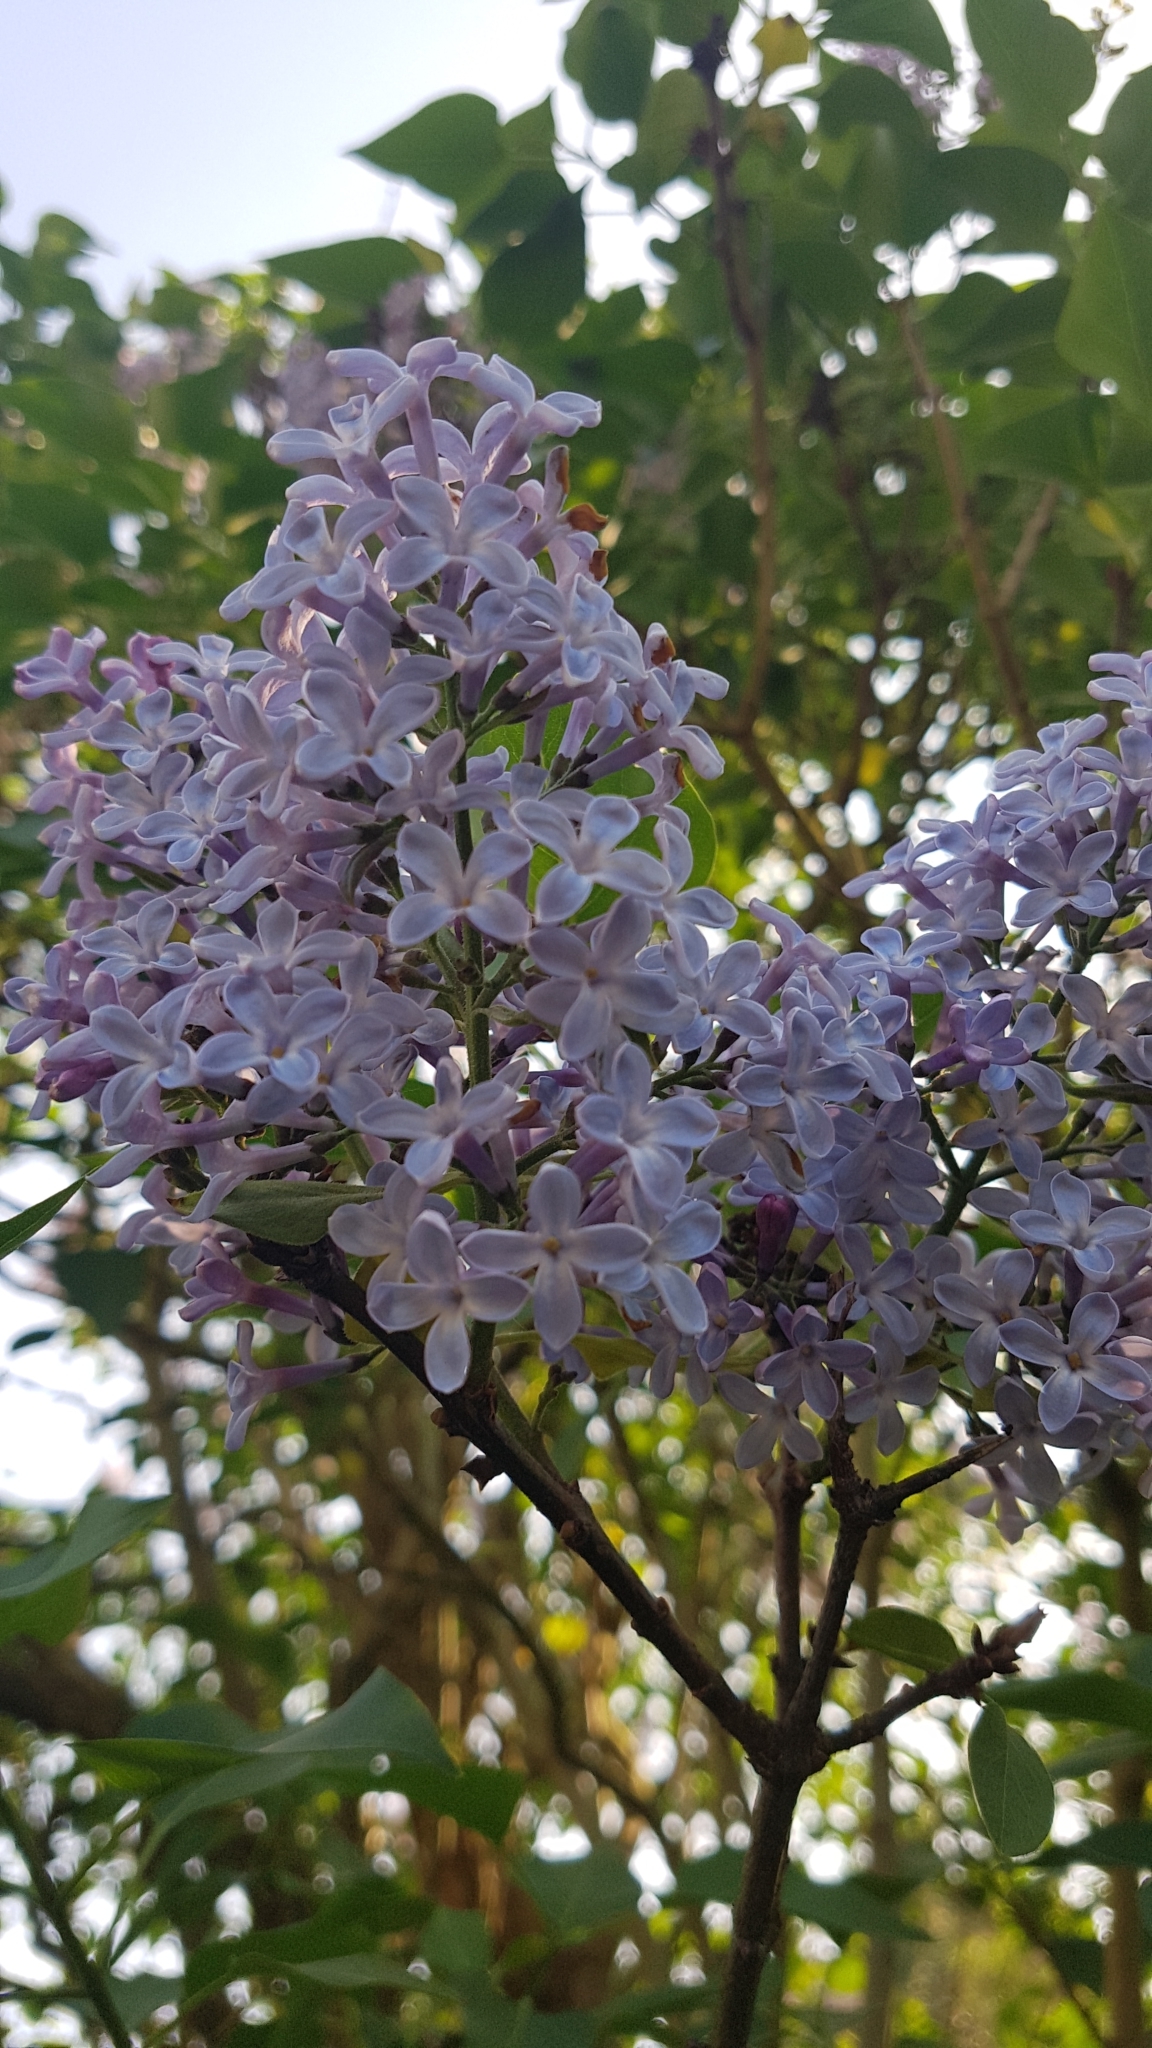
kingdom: Plantae
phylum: Tracheophyta
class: Magnoliopsida
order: Lamiales
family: Oleaceae
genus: Syringa
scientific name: Syringa vulgaris
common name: Common lilac
